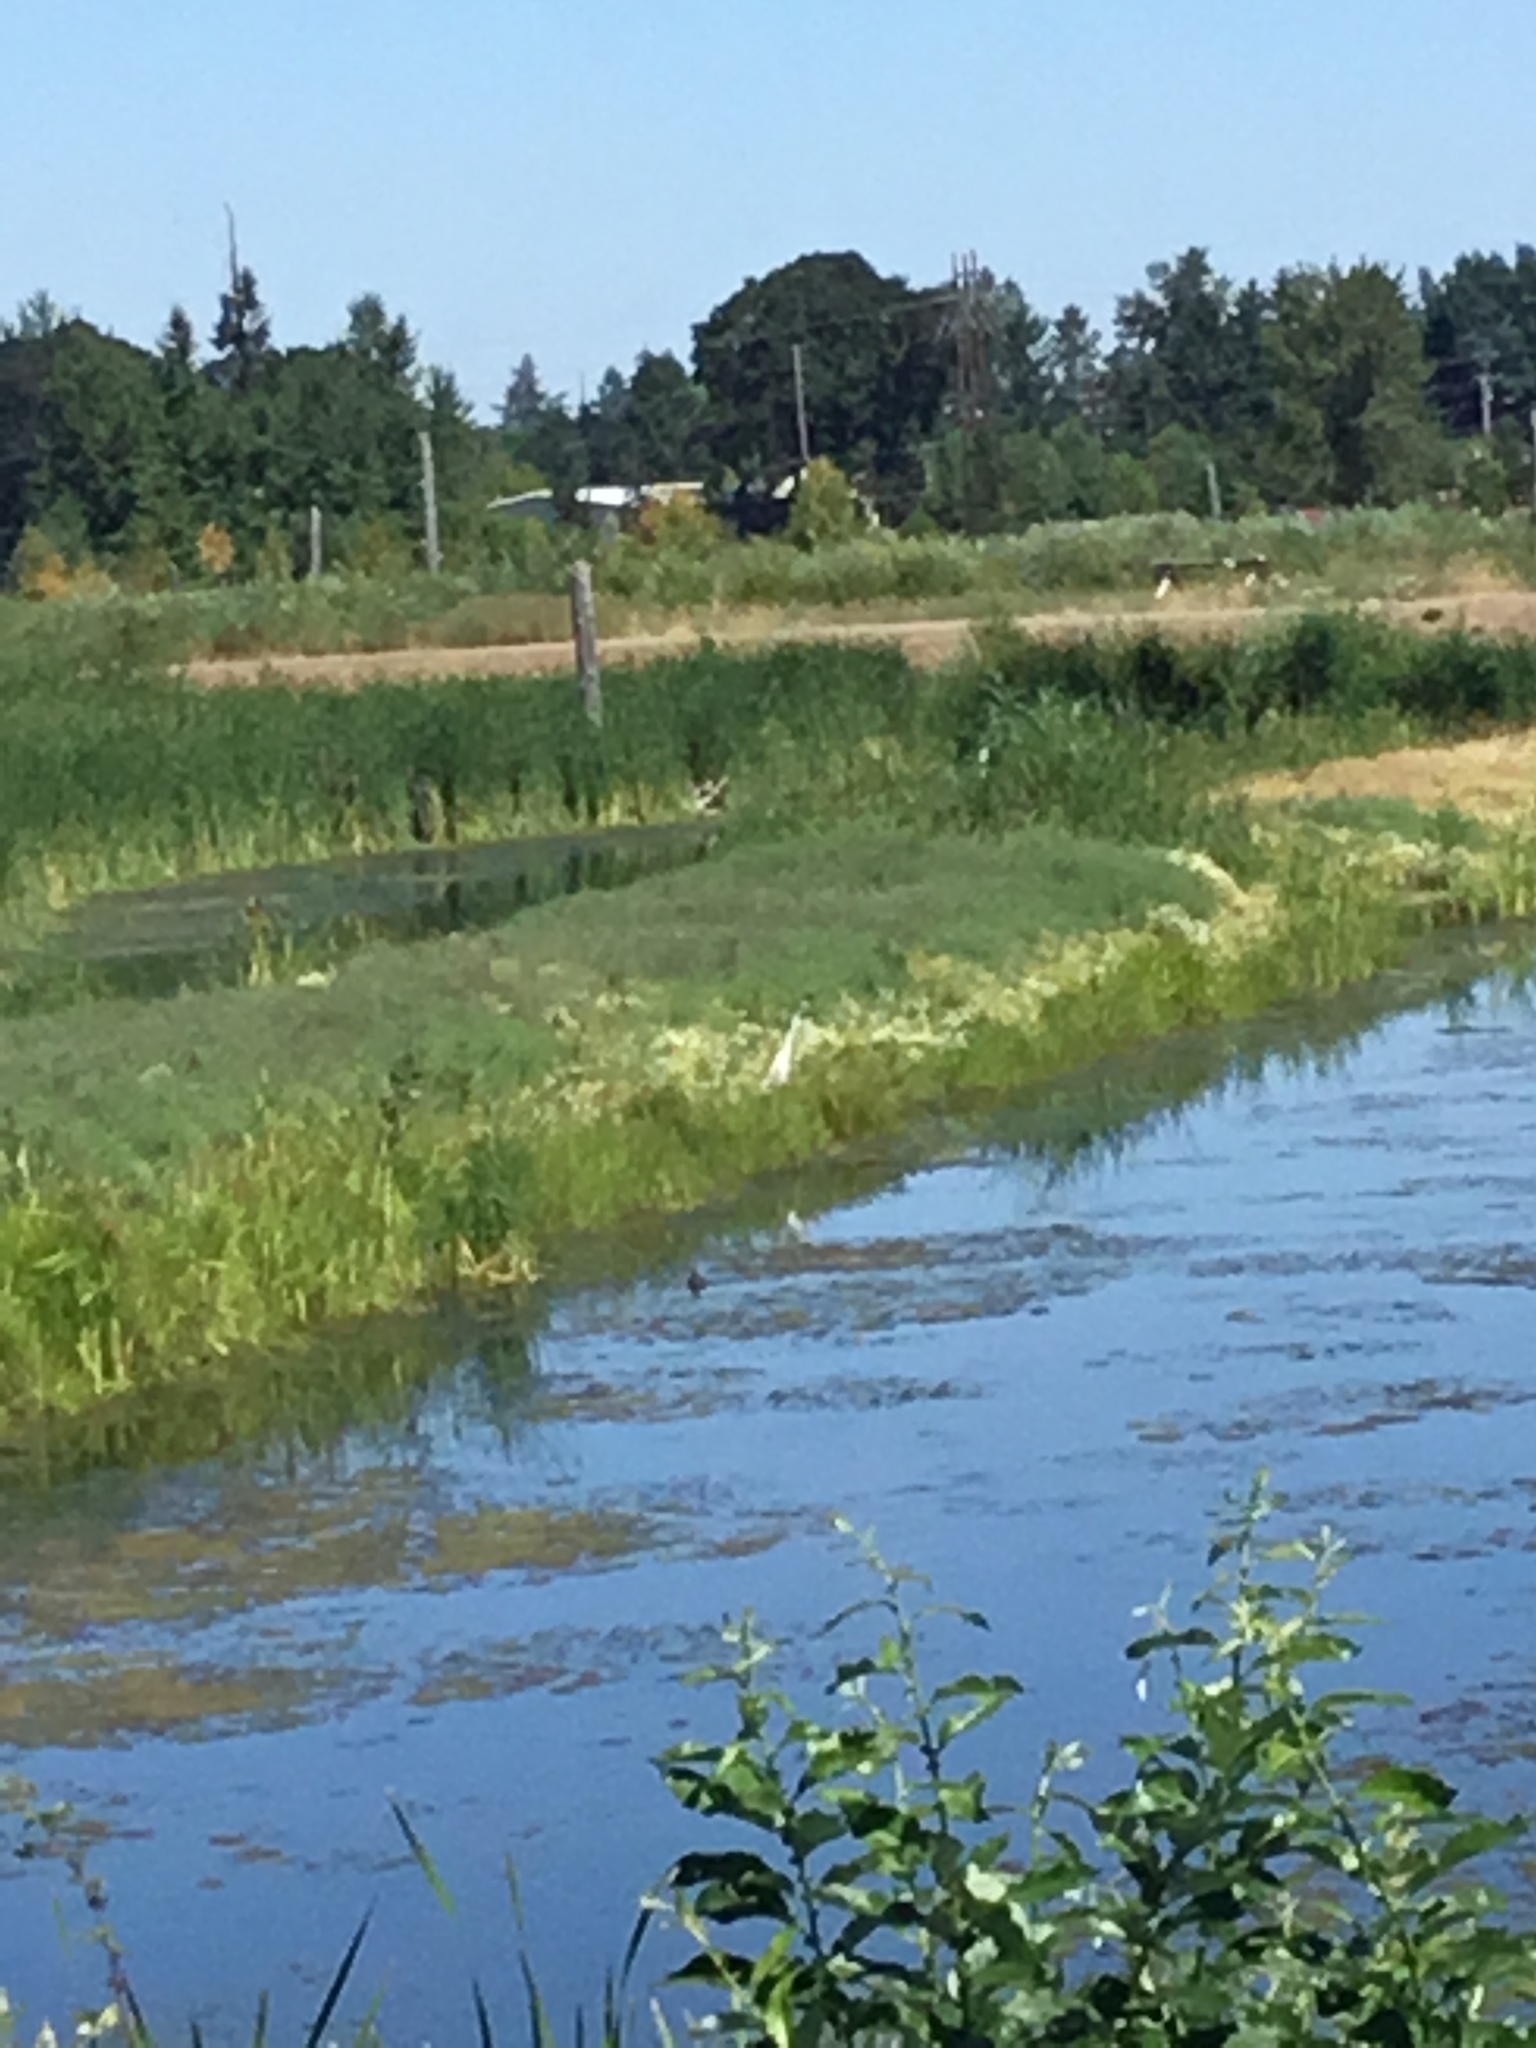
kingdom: Animalia
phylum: Chordata
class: Aves
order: Pelecaniformes
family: Ardeidae
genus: Ardea
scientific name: Ardea alba
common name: Great egret
